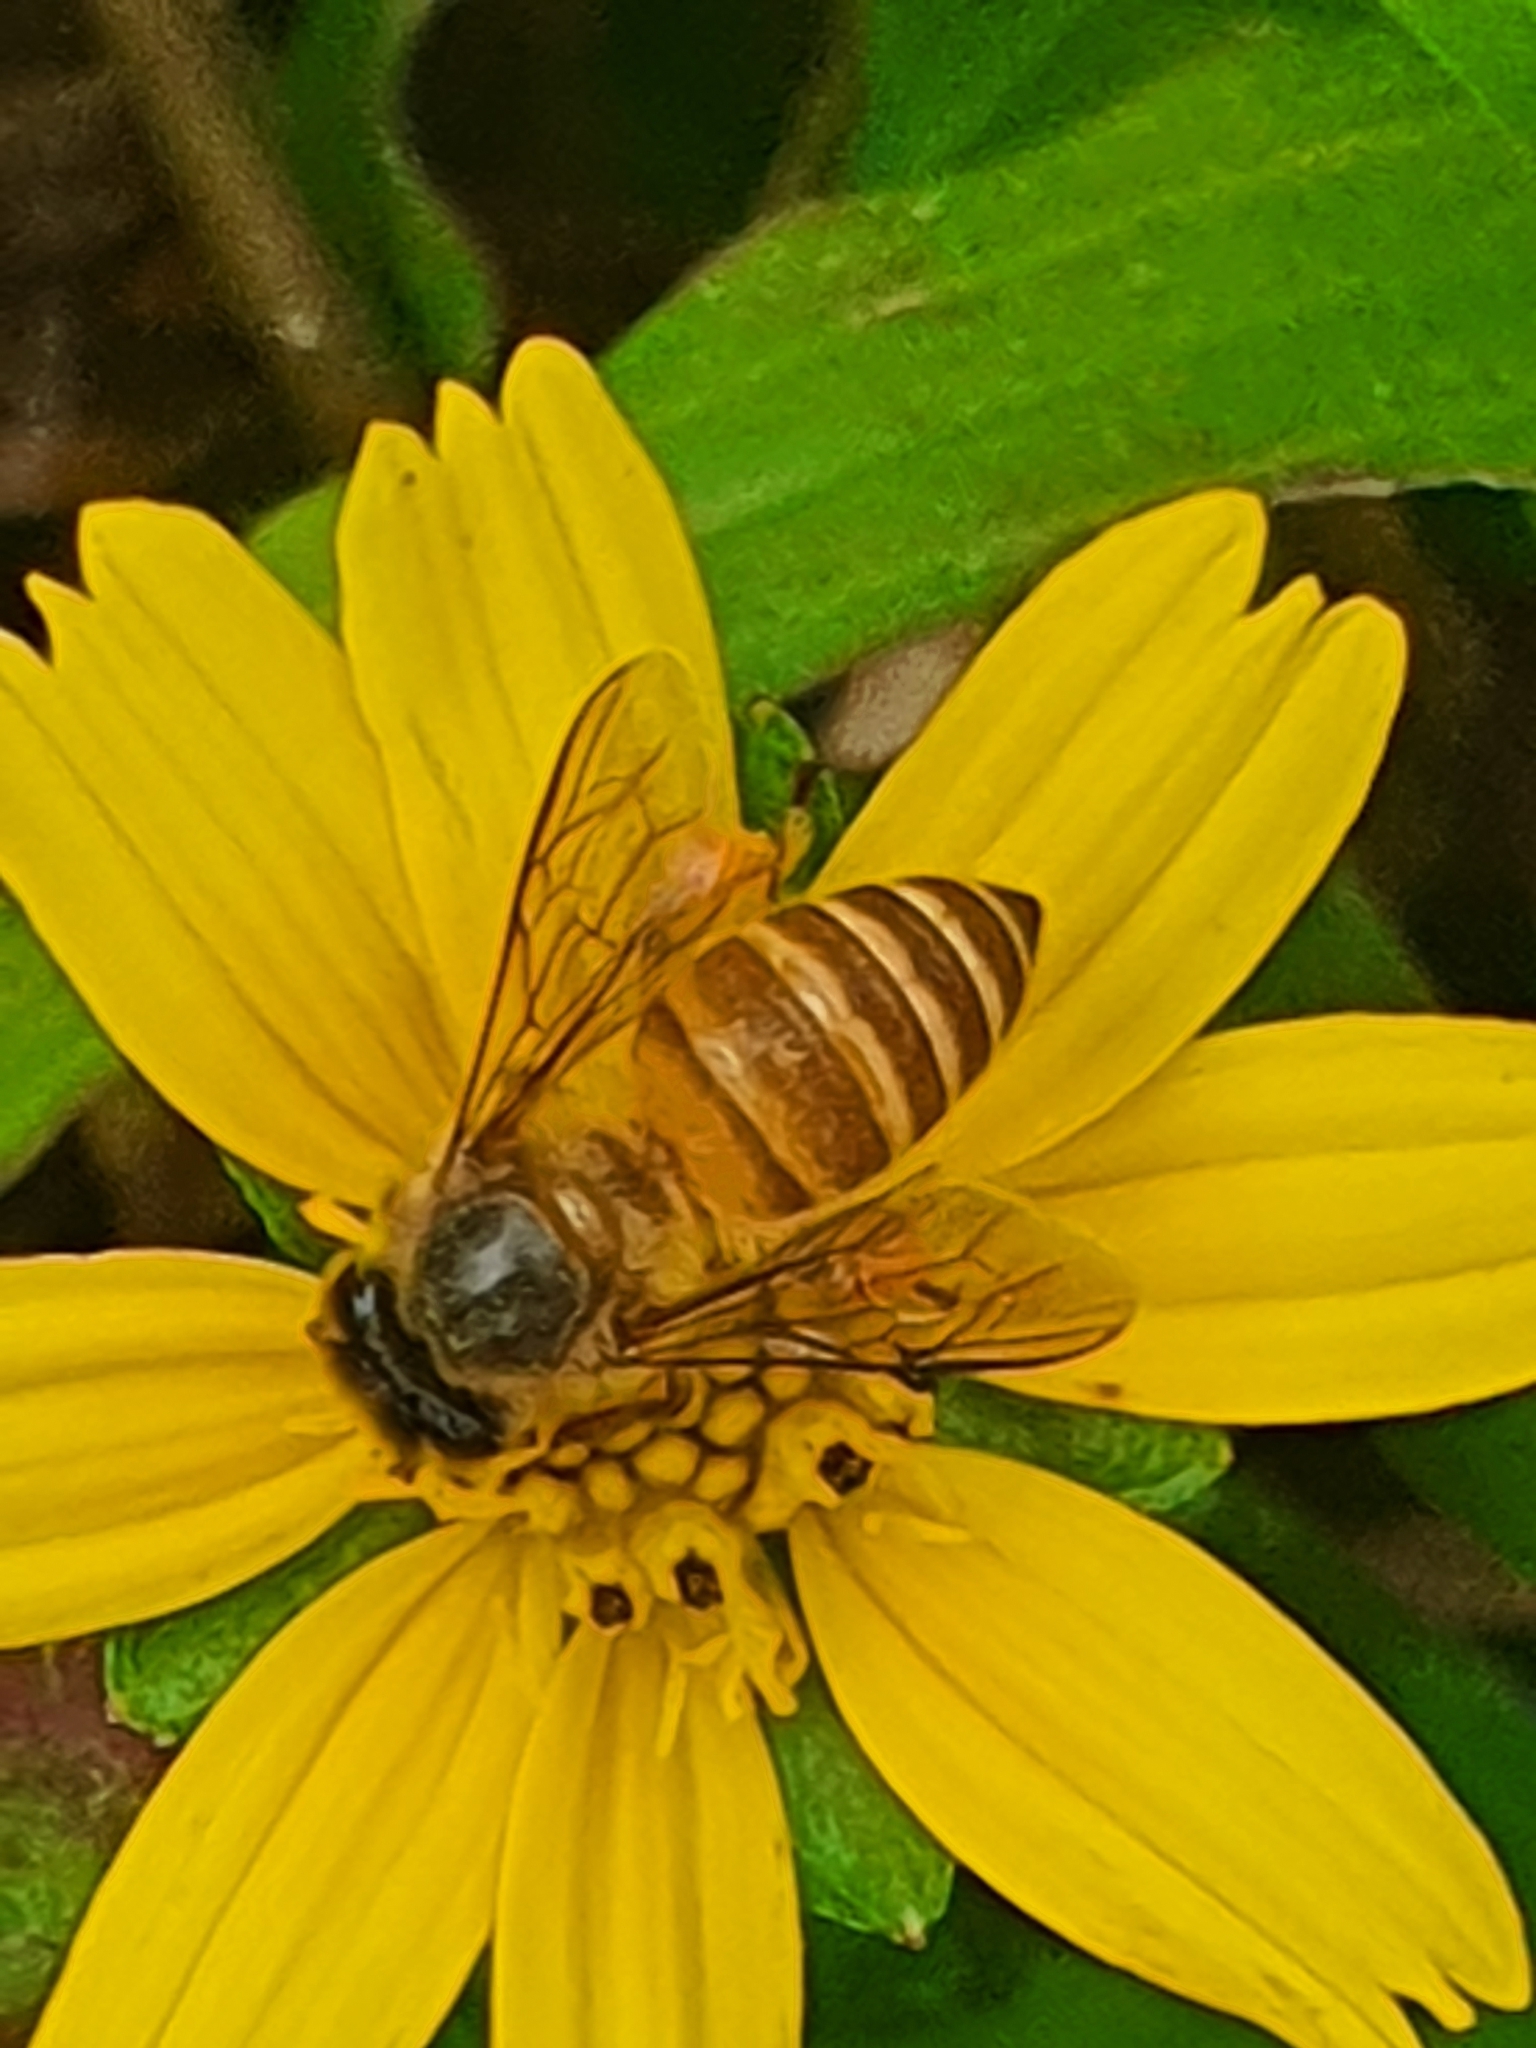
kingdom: Animalia
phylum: Arthropoda
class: Insecta
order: Hymenoptera
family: Apidae
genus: Apis
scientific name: Apis cerana
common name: Honey bee
